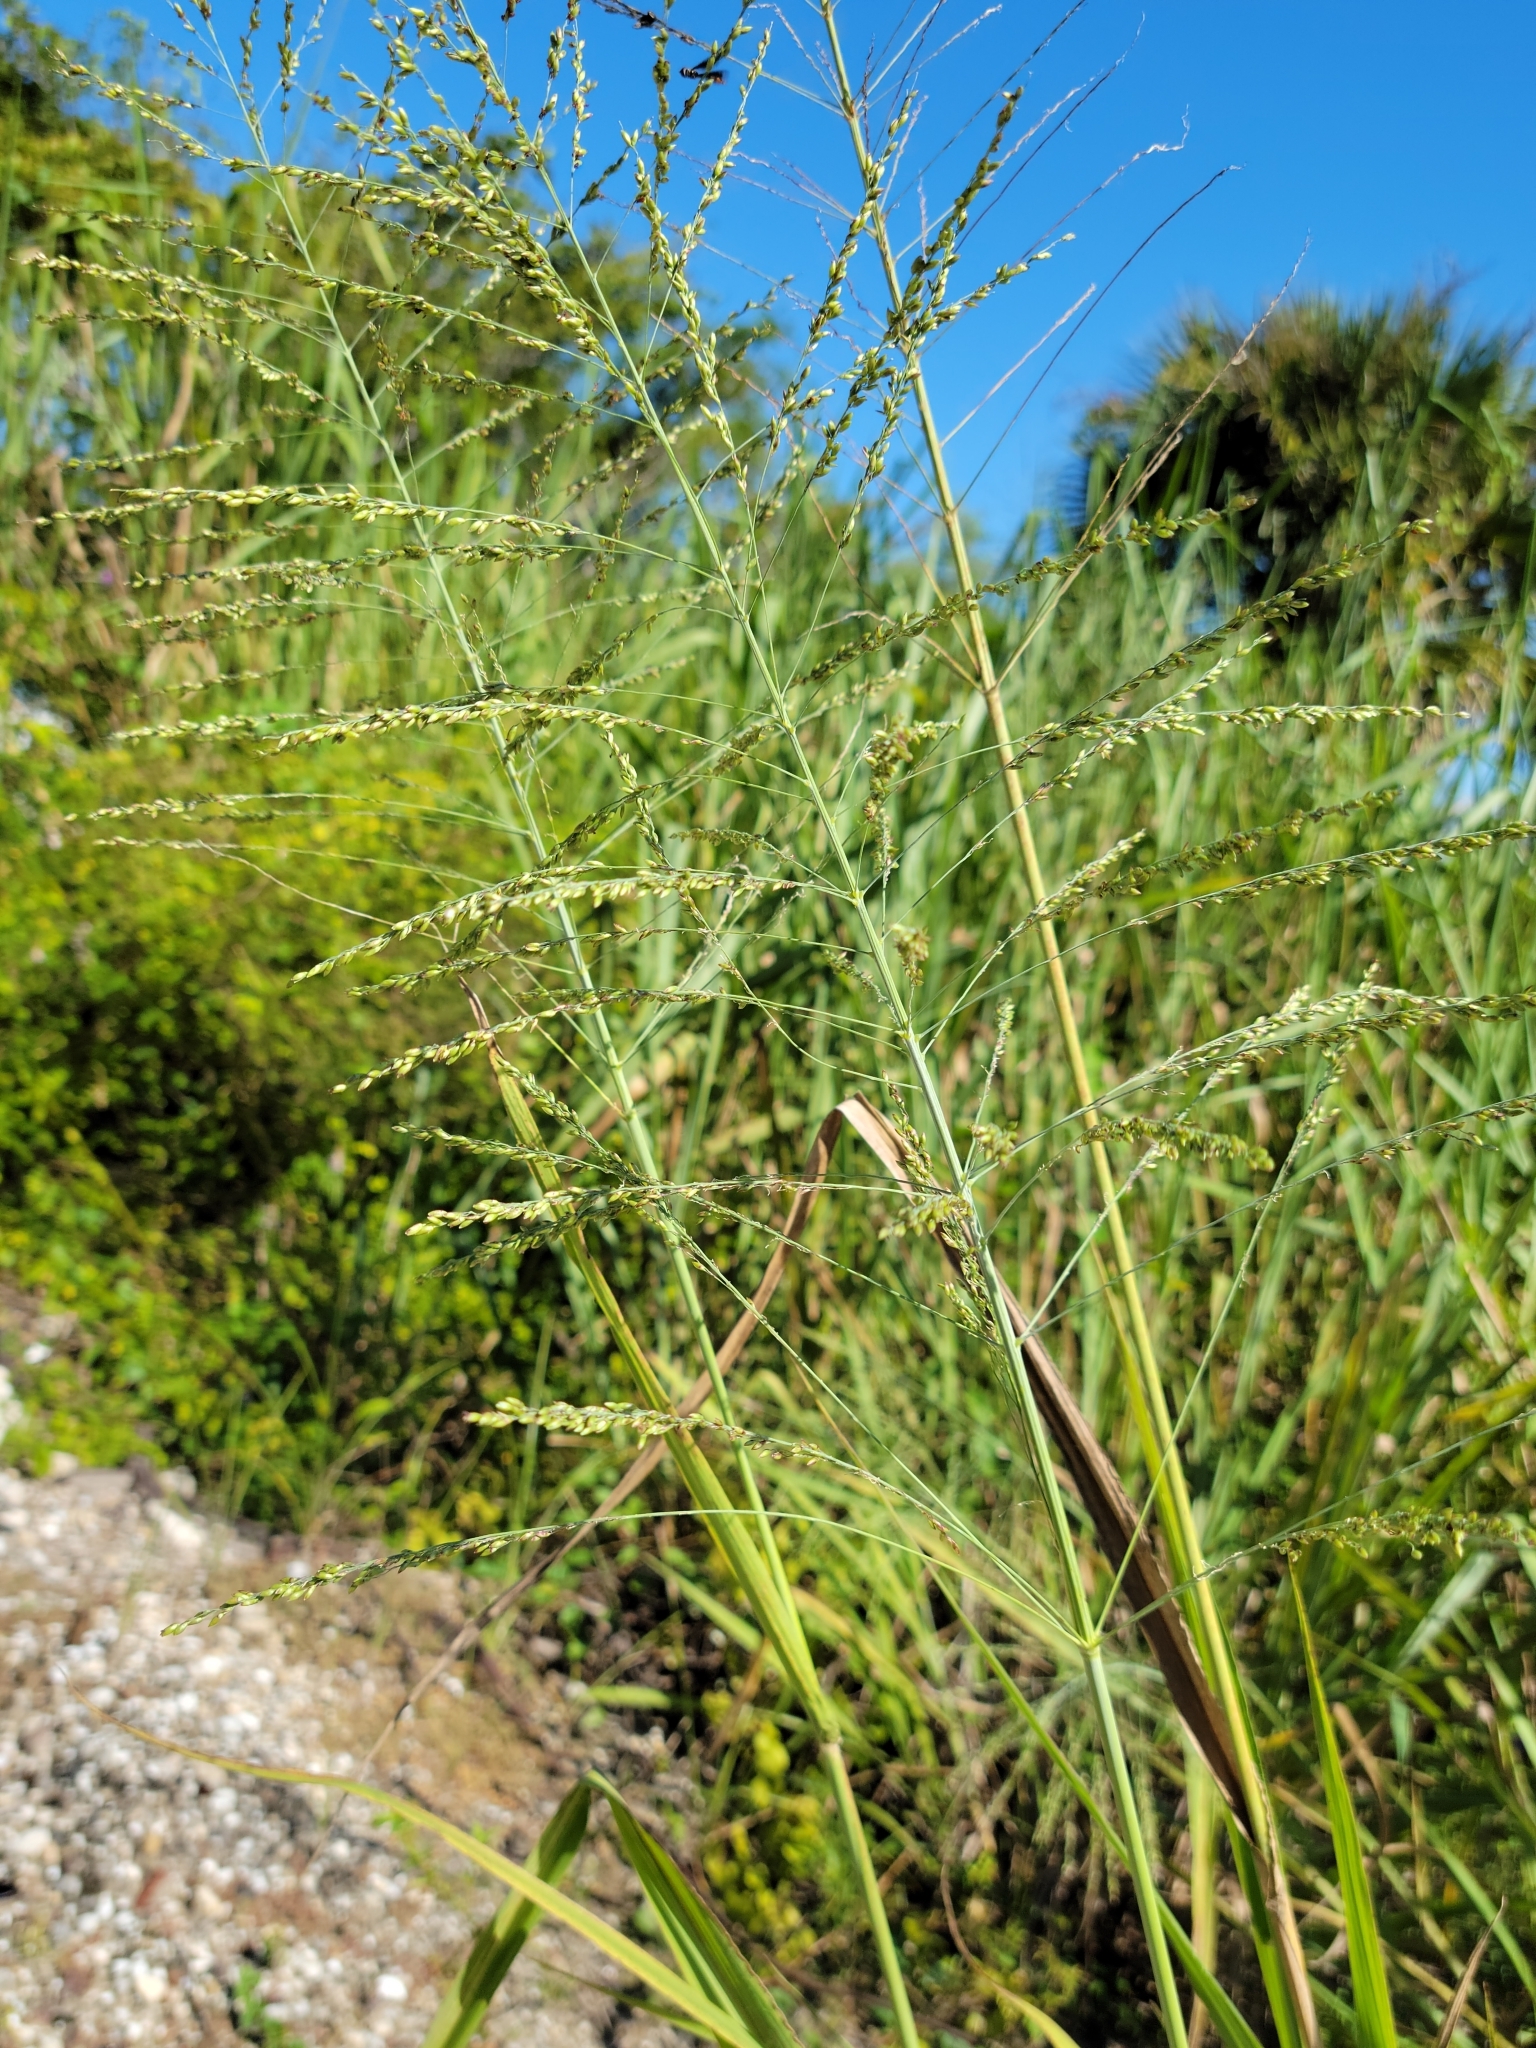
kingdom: Plantae
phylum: Tracheophyta
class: Liliopsida
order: Poales
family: Poaceae
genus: Megathyrsus
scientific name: Megathyrsus maximus
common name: Guineagrass
